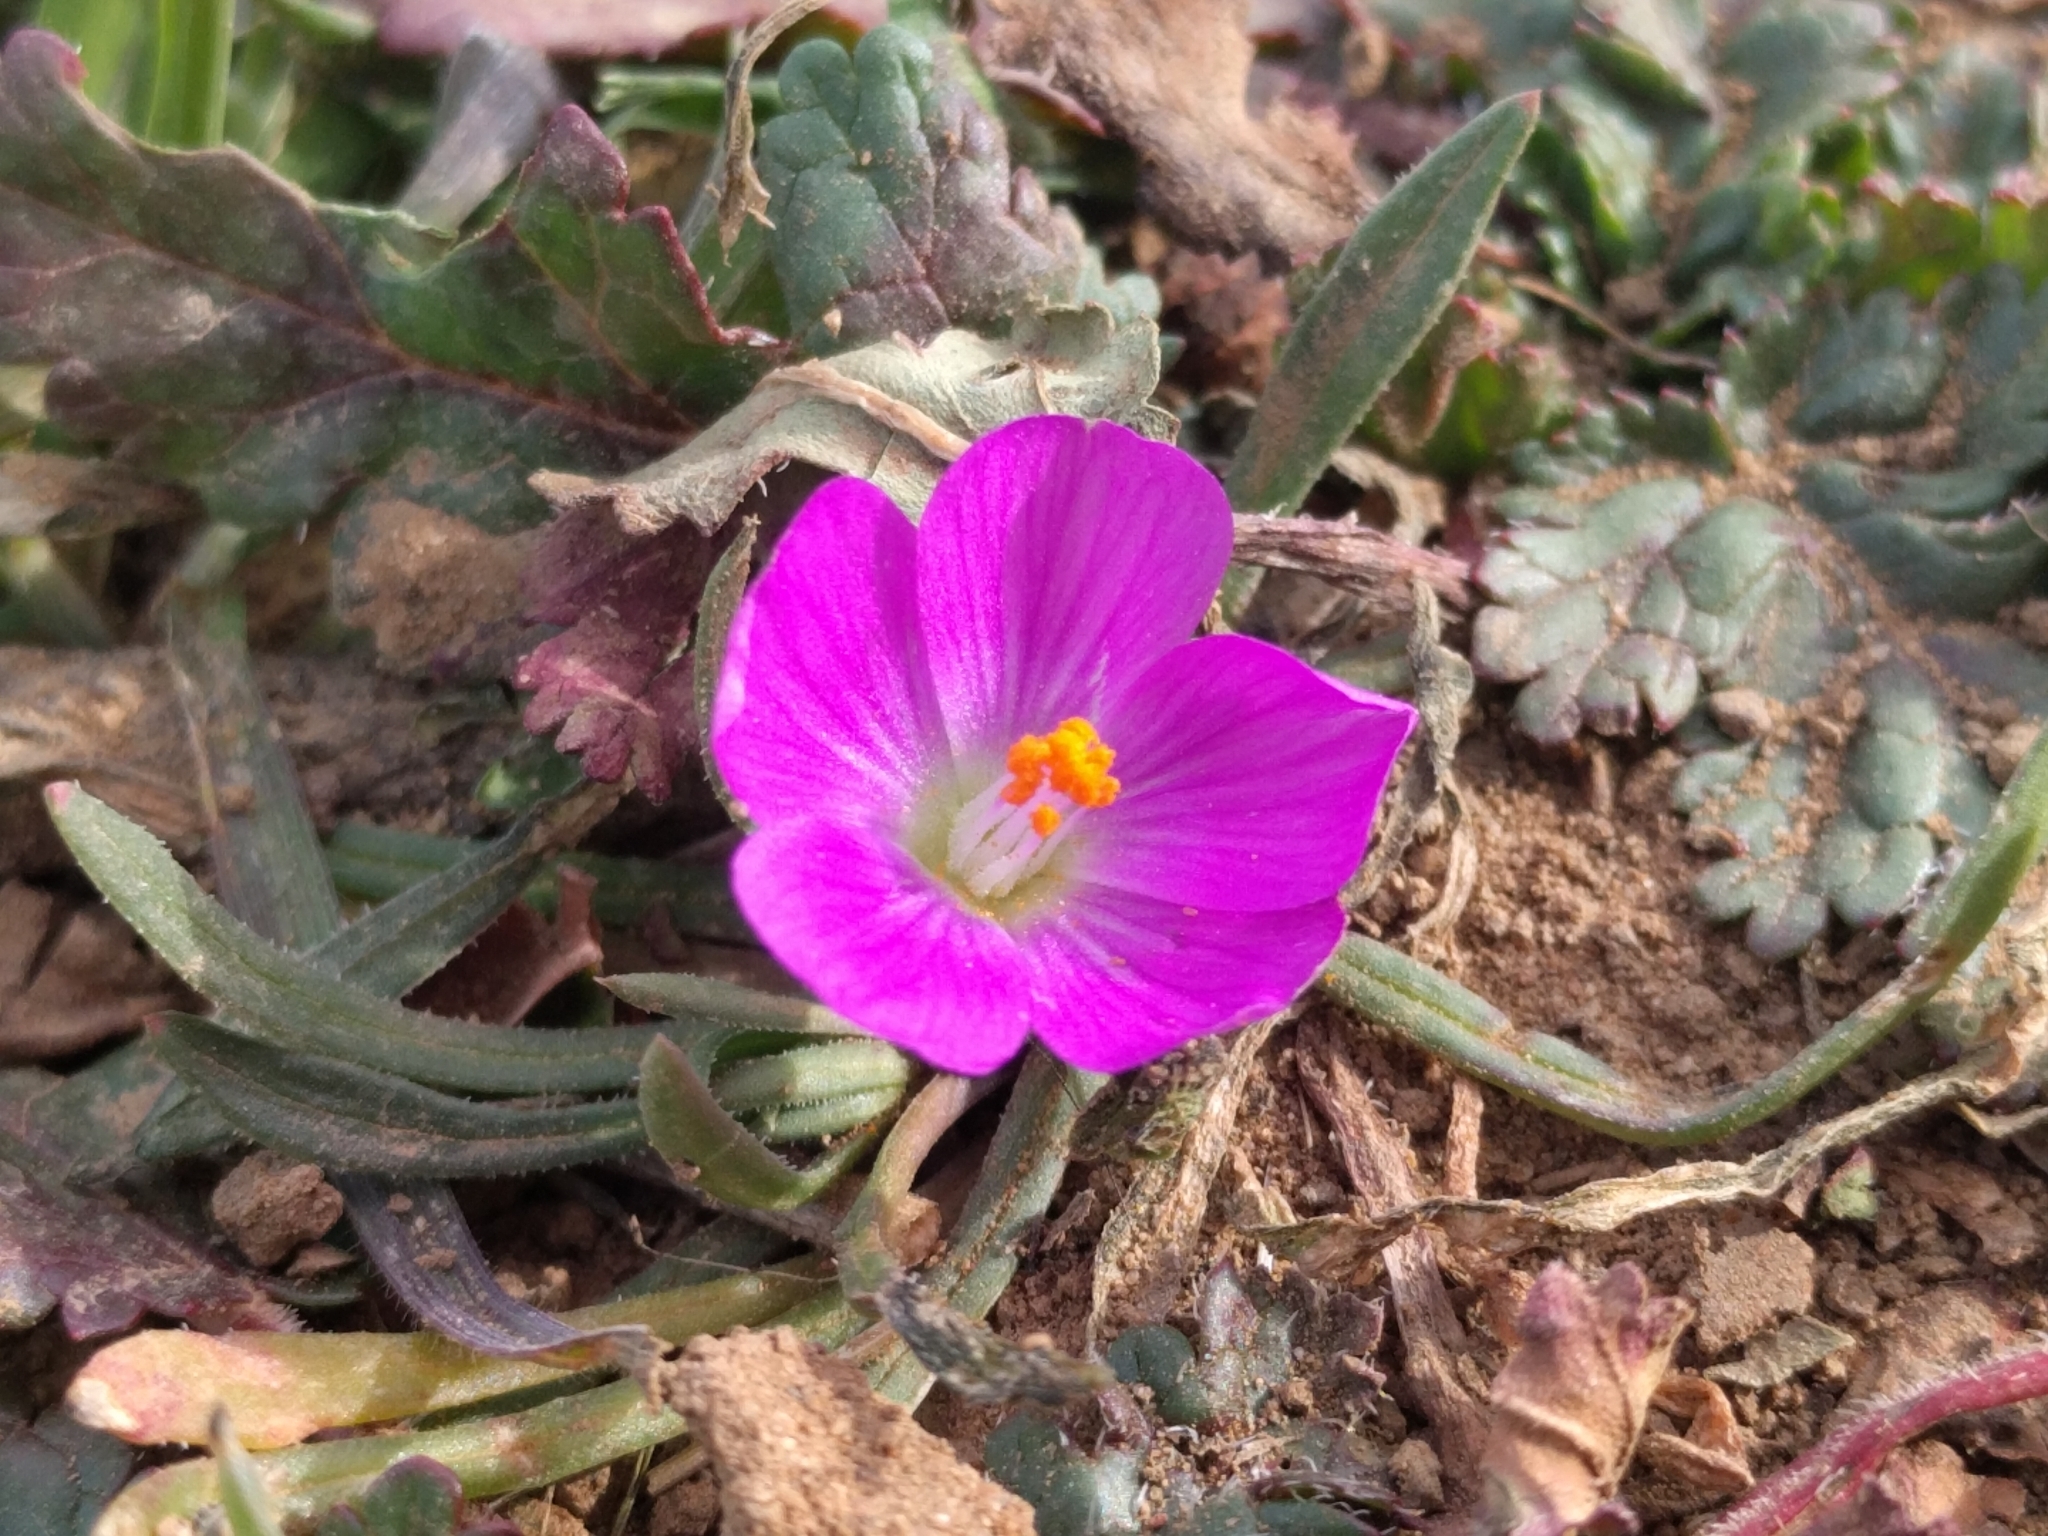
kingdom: Plantae
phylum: Tracheophyta
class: Magnoliopsida
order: Caryophyllales
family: Montiaceae
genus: Calandrinia
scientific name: Calandrinia menziesii
